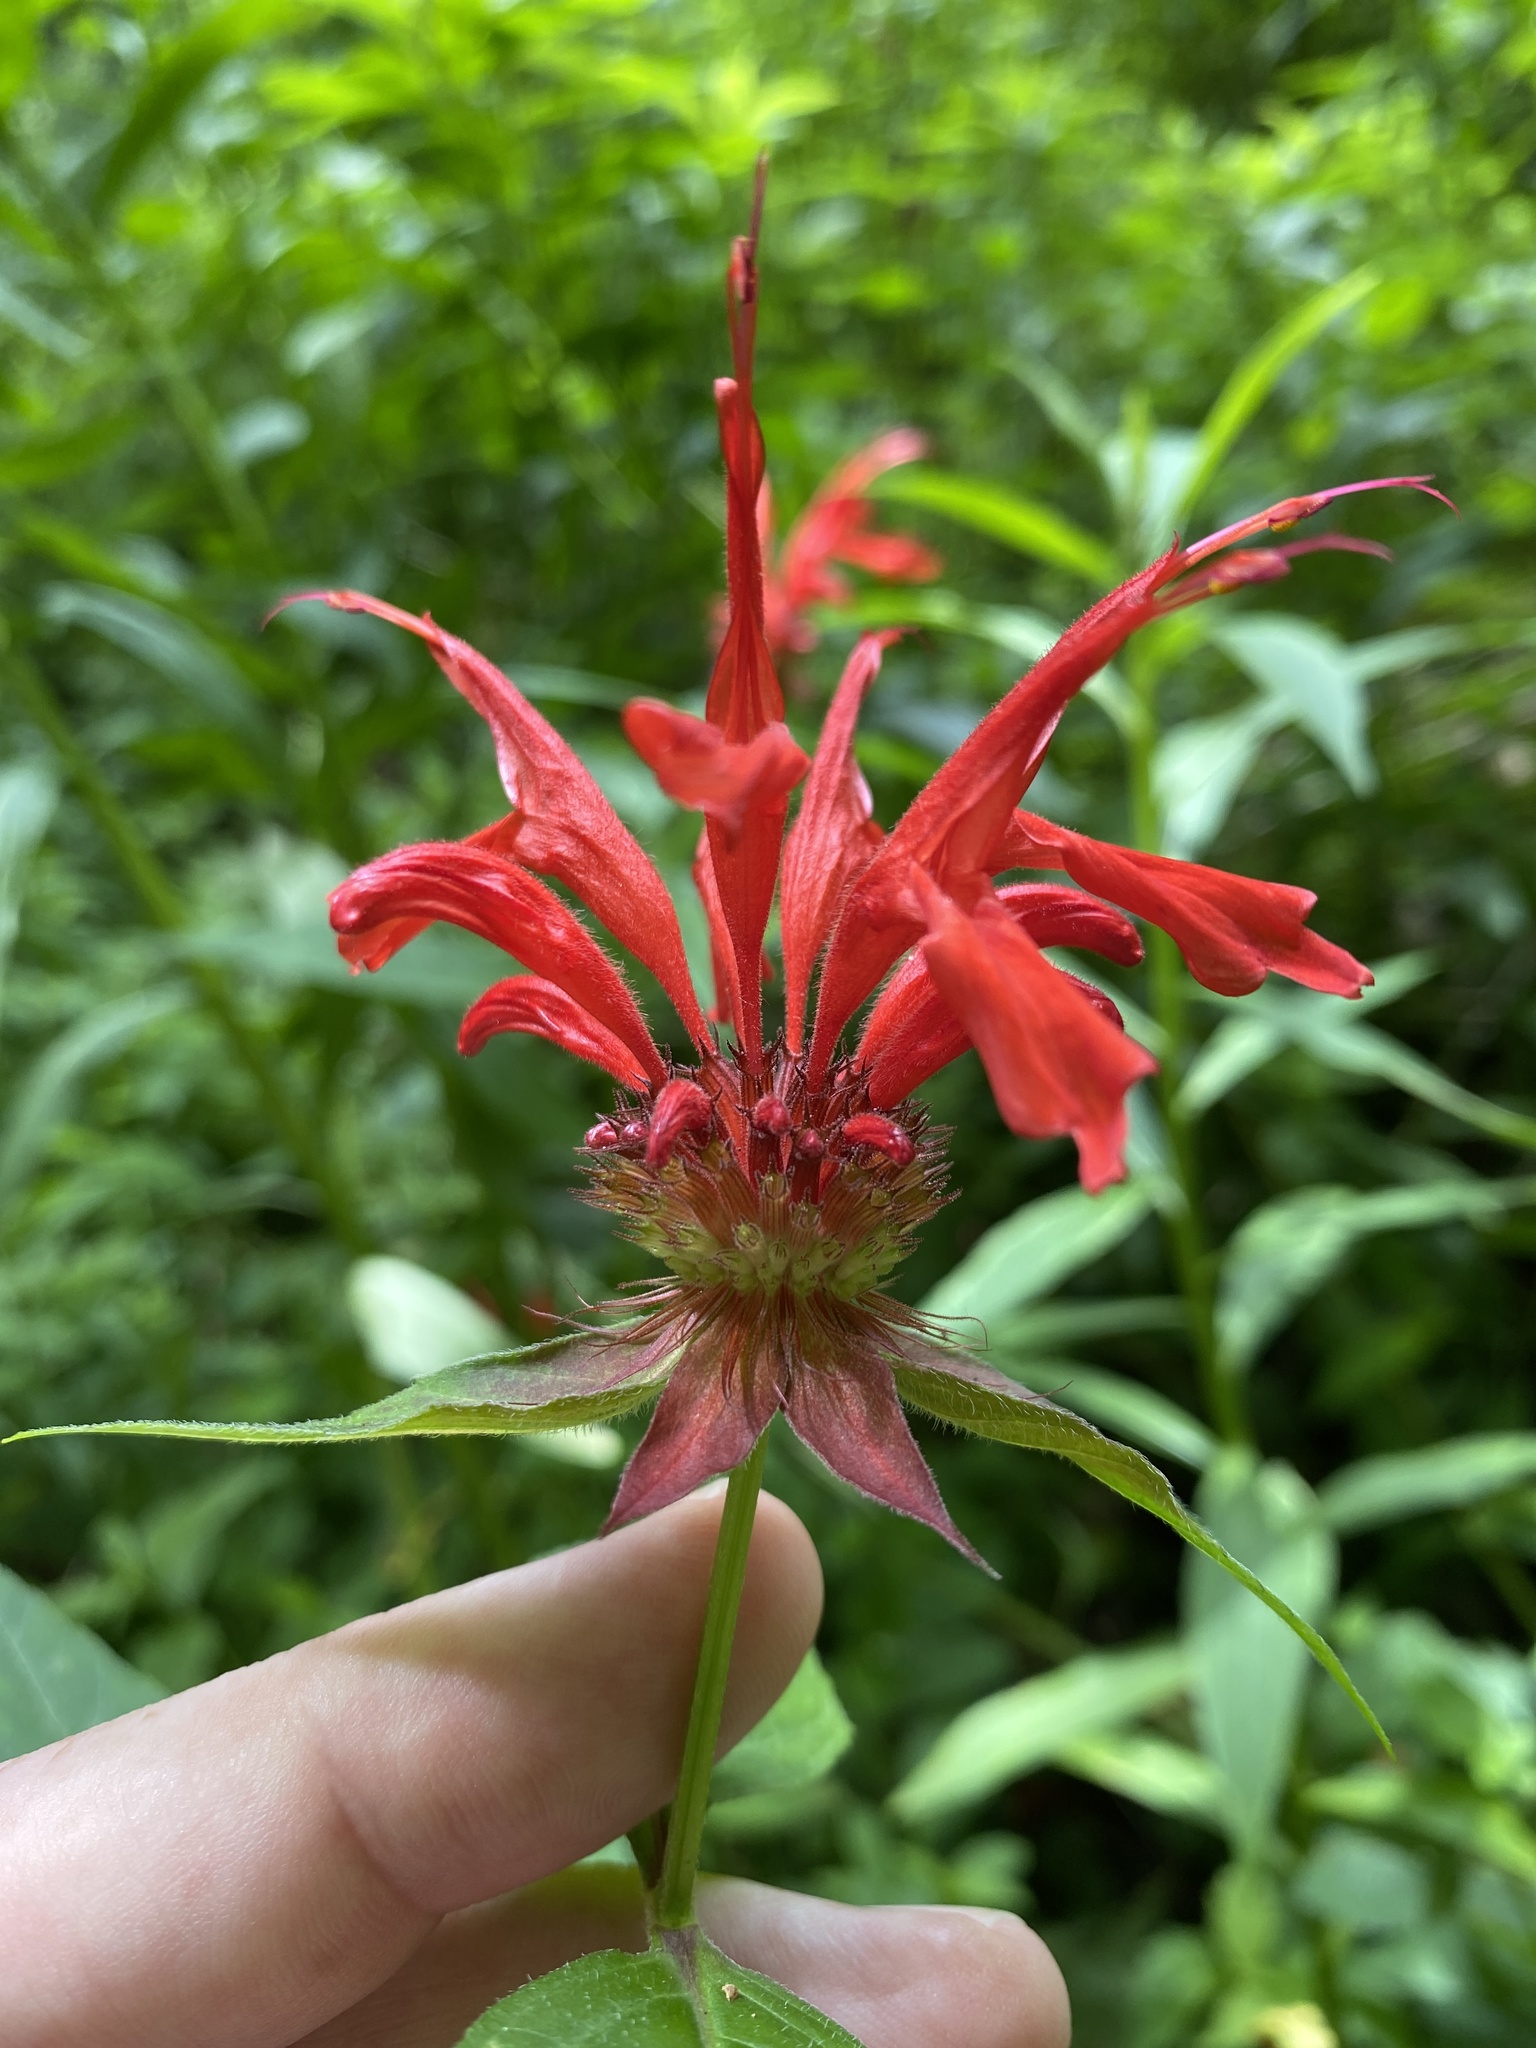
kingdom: Plantae
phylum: Tracheophyta
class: Magnoliopsida
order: Lamiales
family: Lamiaceae
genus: Monarda
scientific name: Monarda didyma
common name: Beebalm
